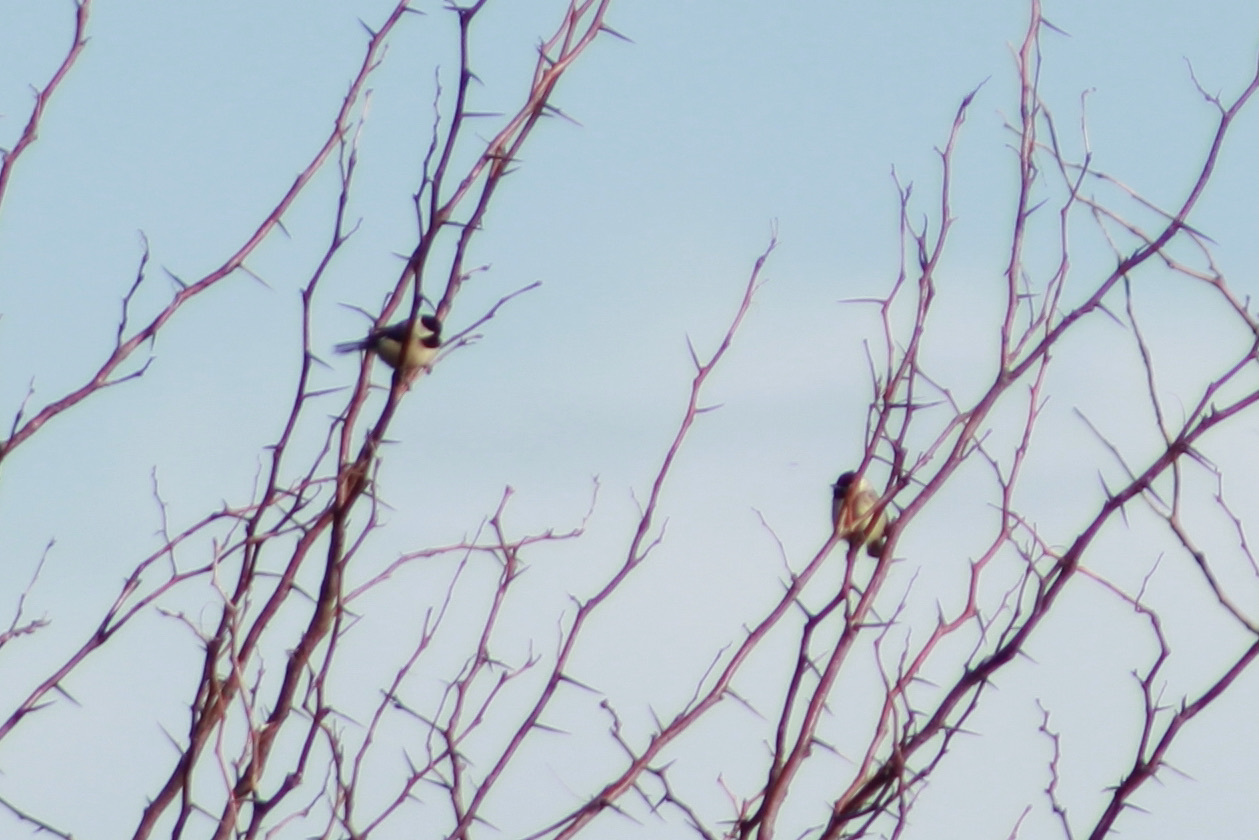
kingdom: Animalia
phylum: Chordata
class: Aves
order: Passeriformes
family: Paridae
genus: Poecile
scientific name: Poecile carolinensis
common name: Carolina chickadee
